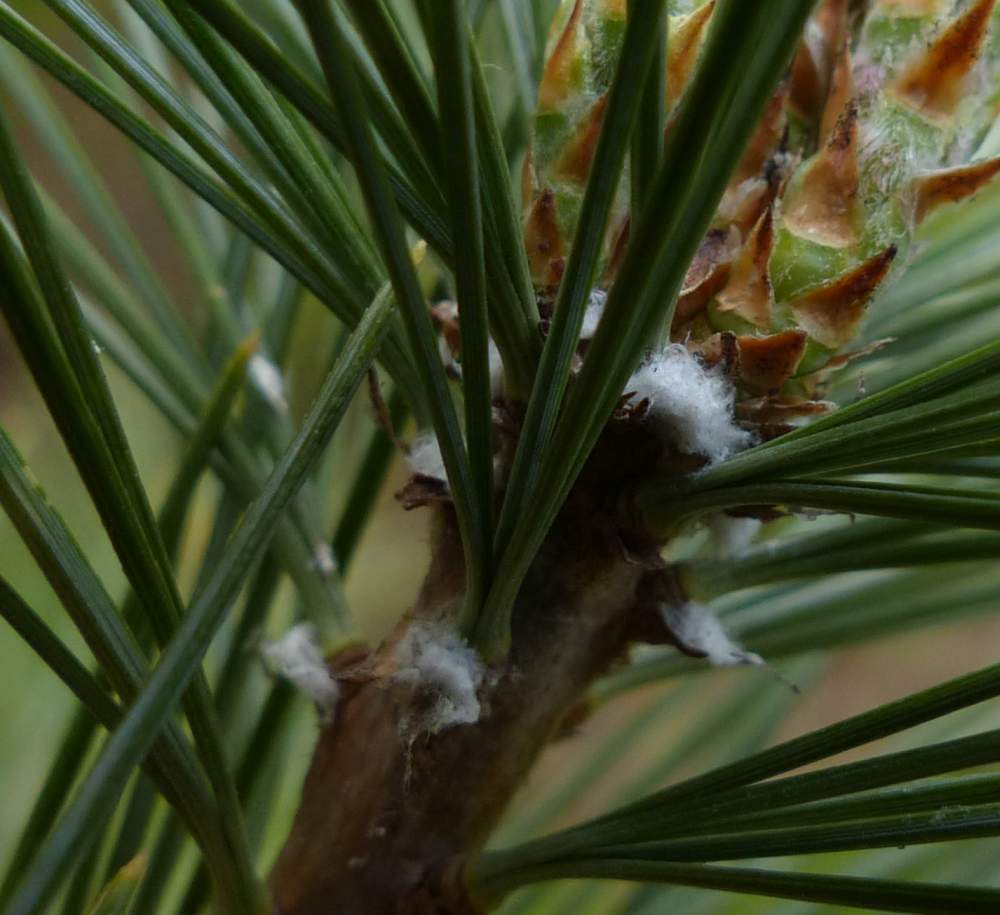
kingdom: Animalia
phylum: Arthropoda
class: Insecta
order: Hemiptera
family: Adelgidae
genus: Pineus
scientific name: Pineus strobi
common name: Pine bark adelgid
